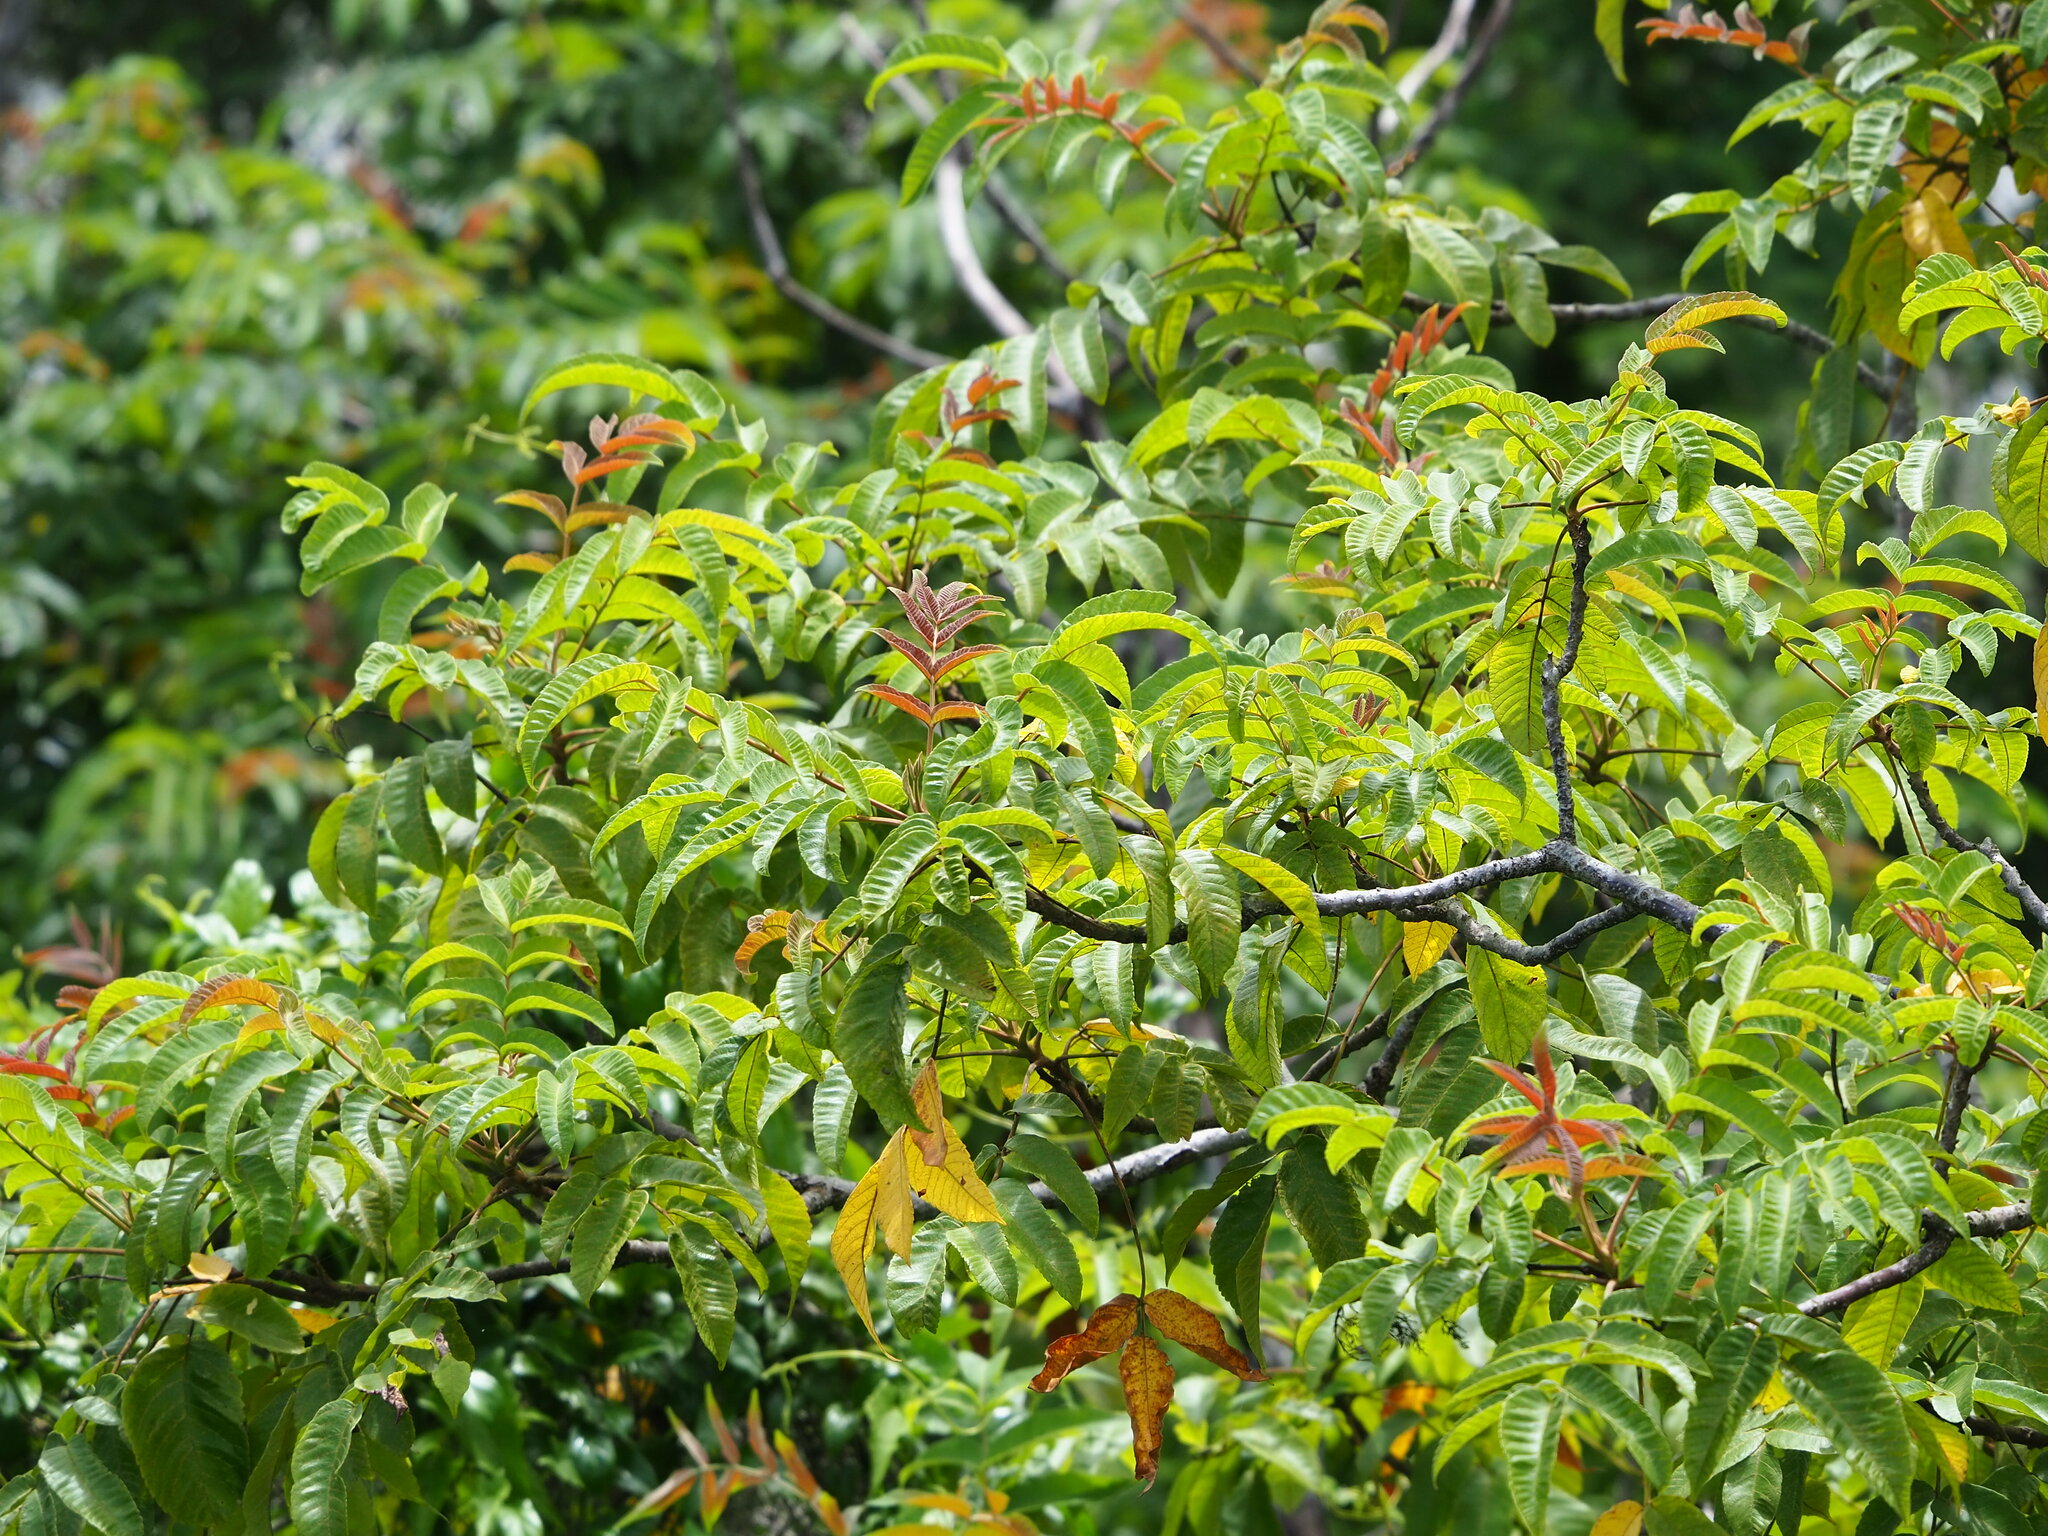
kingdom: Plantae
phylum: Tracheophyta
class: Magnoliopsida
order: Sapindales
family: Anacardiaceae
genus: Rhus
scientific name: Rhus chinensis
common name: Chinese gall
